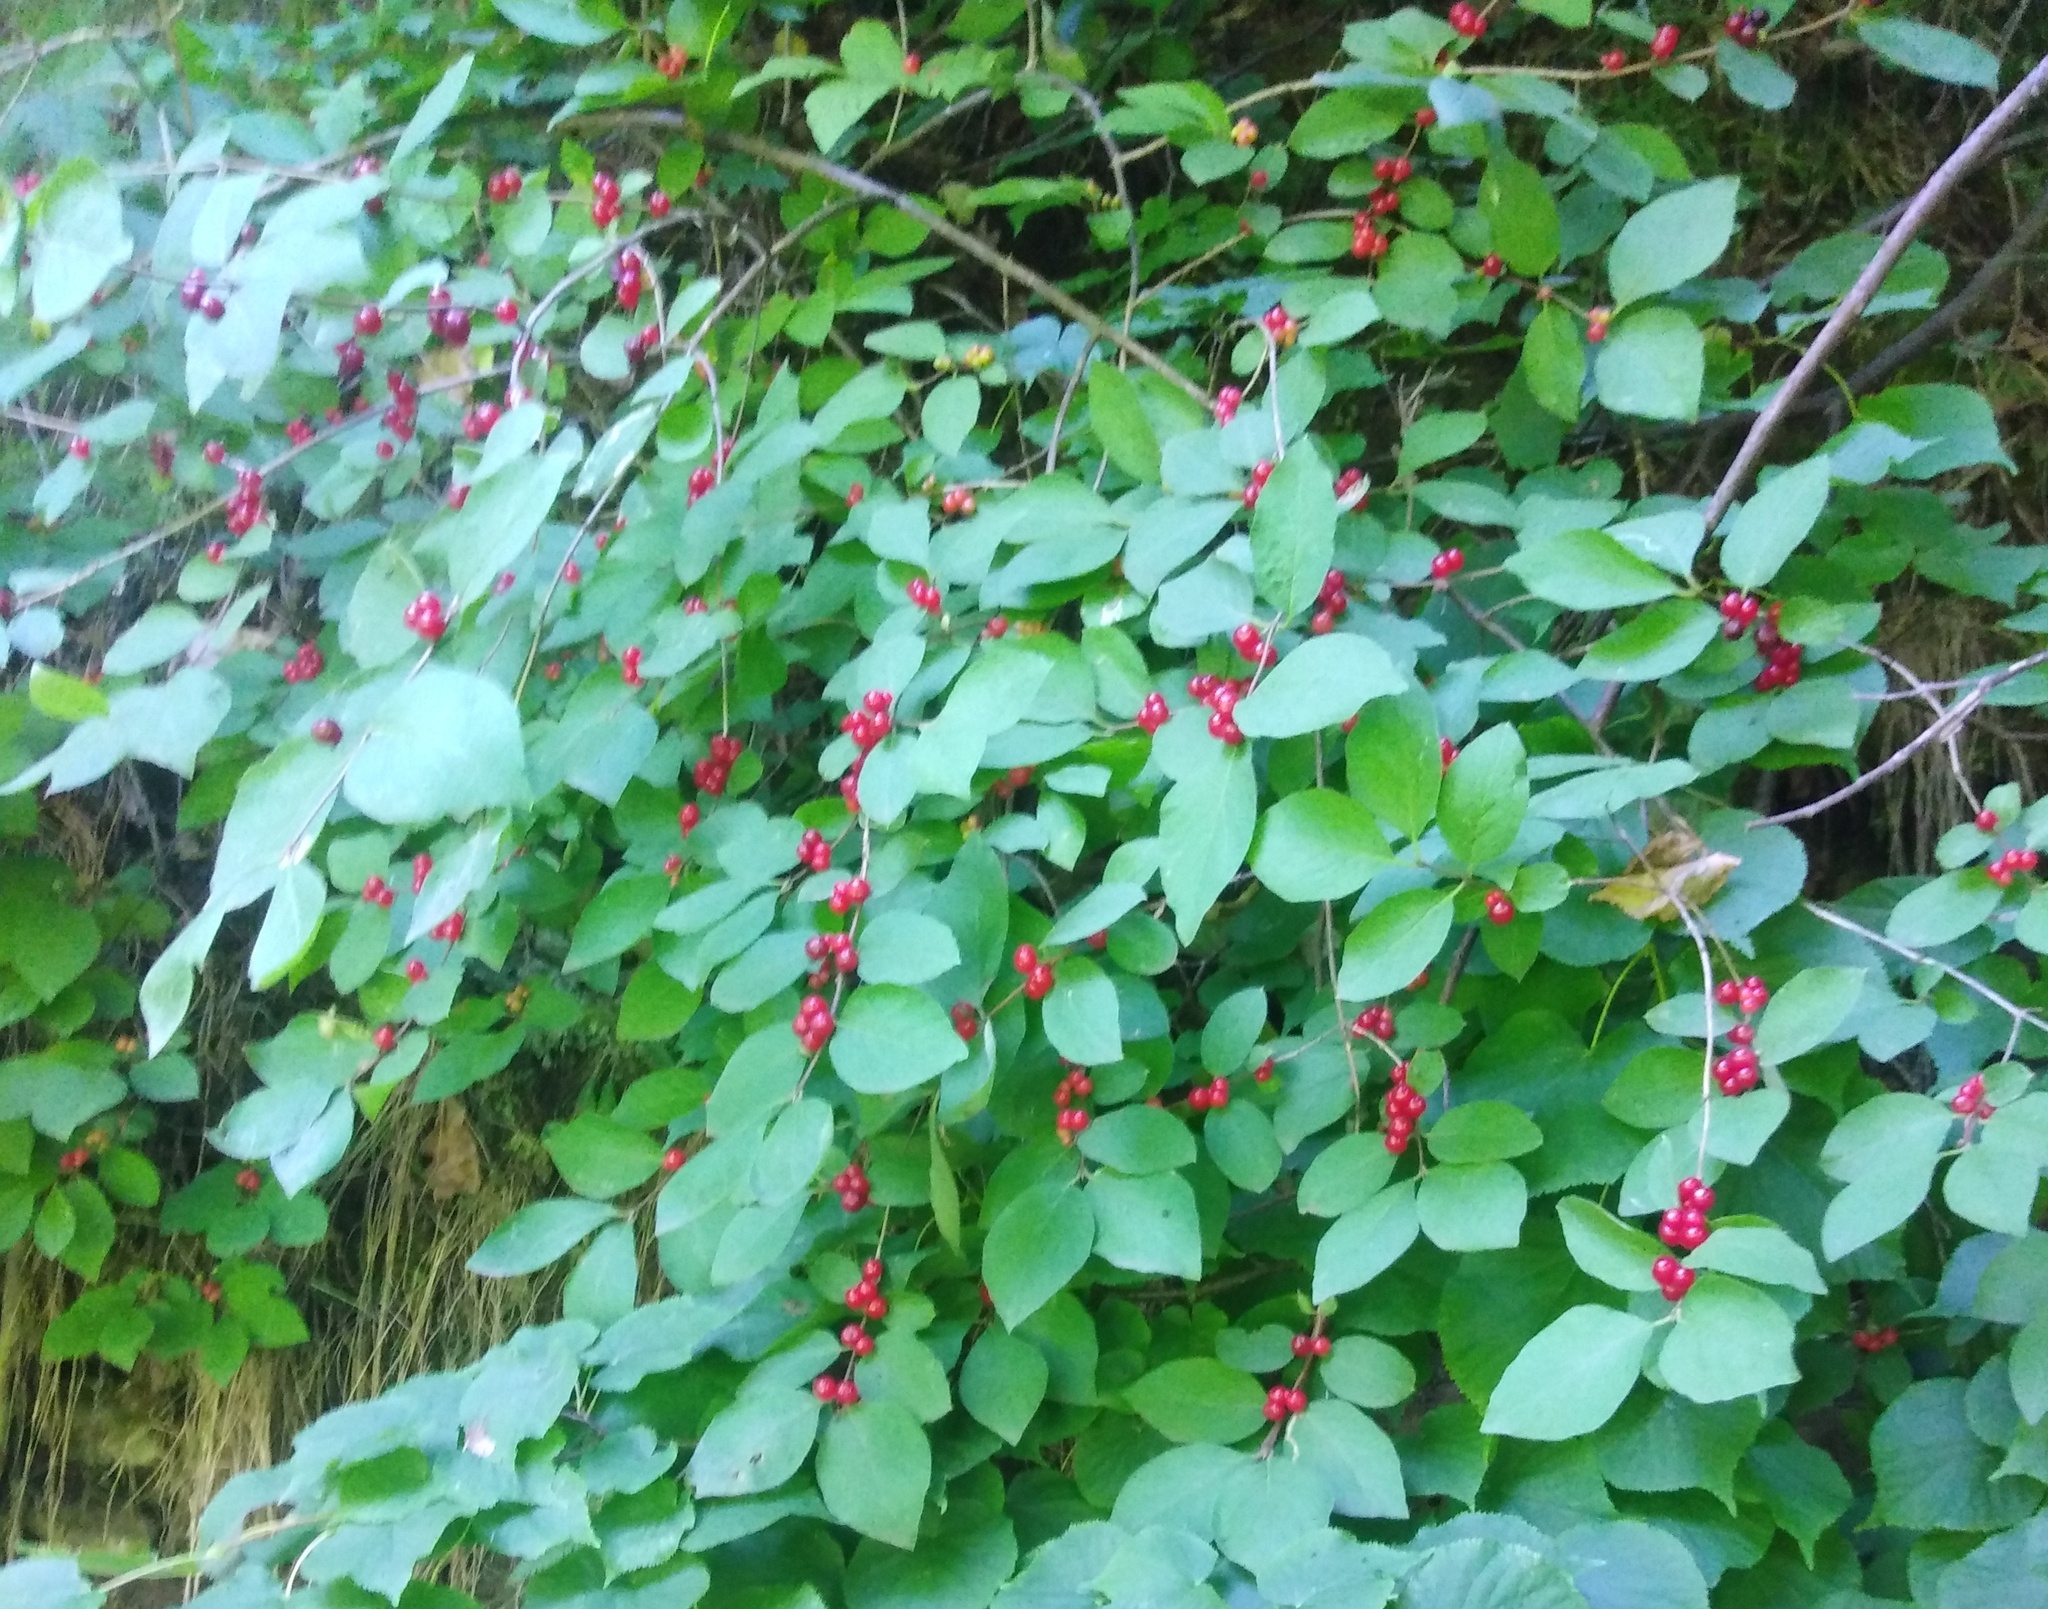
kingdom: Plantae
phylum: Tracheophyta
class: Magnoliopsida
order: Dipsacales
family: Caprifoliaceae
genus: Lonicera
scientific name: Lonicera xylosteum
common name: Fly honeysuckle
